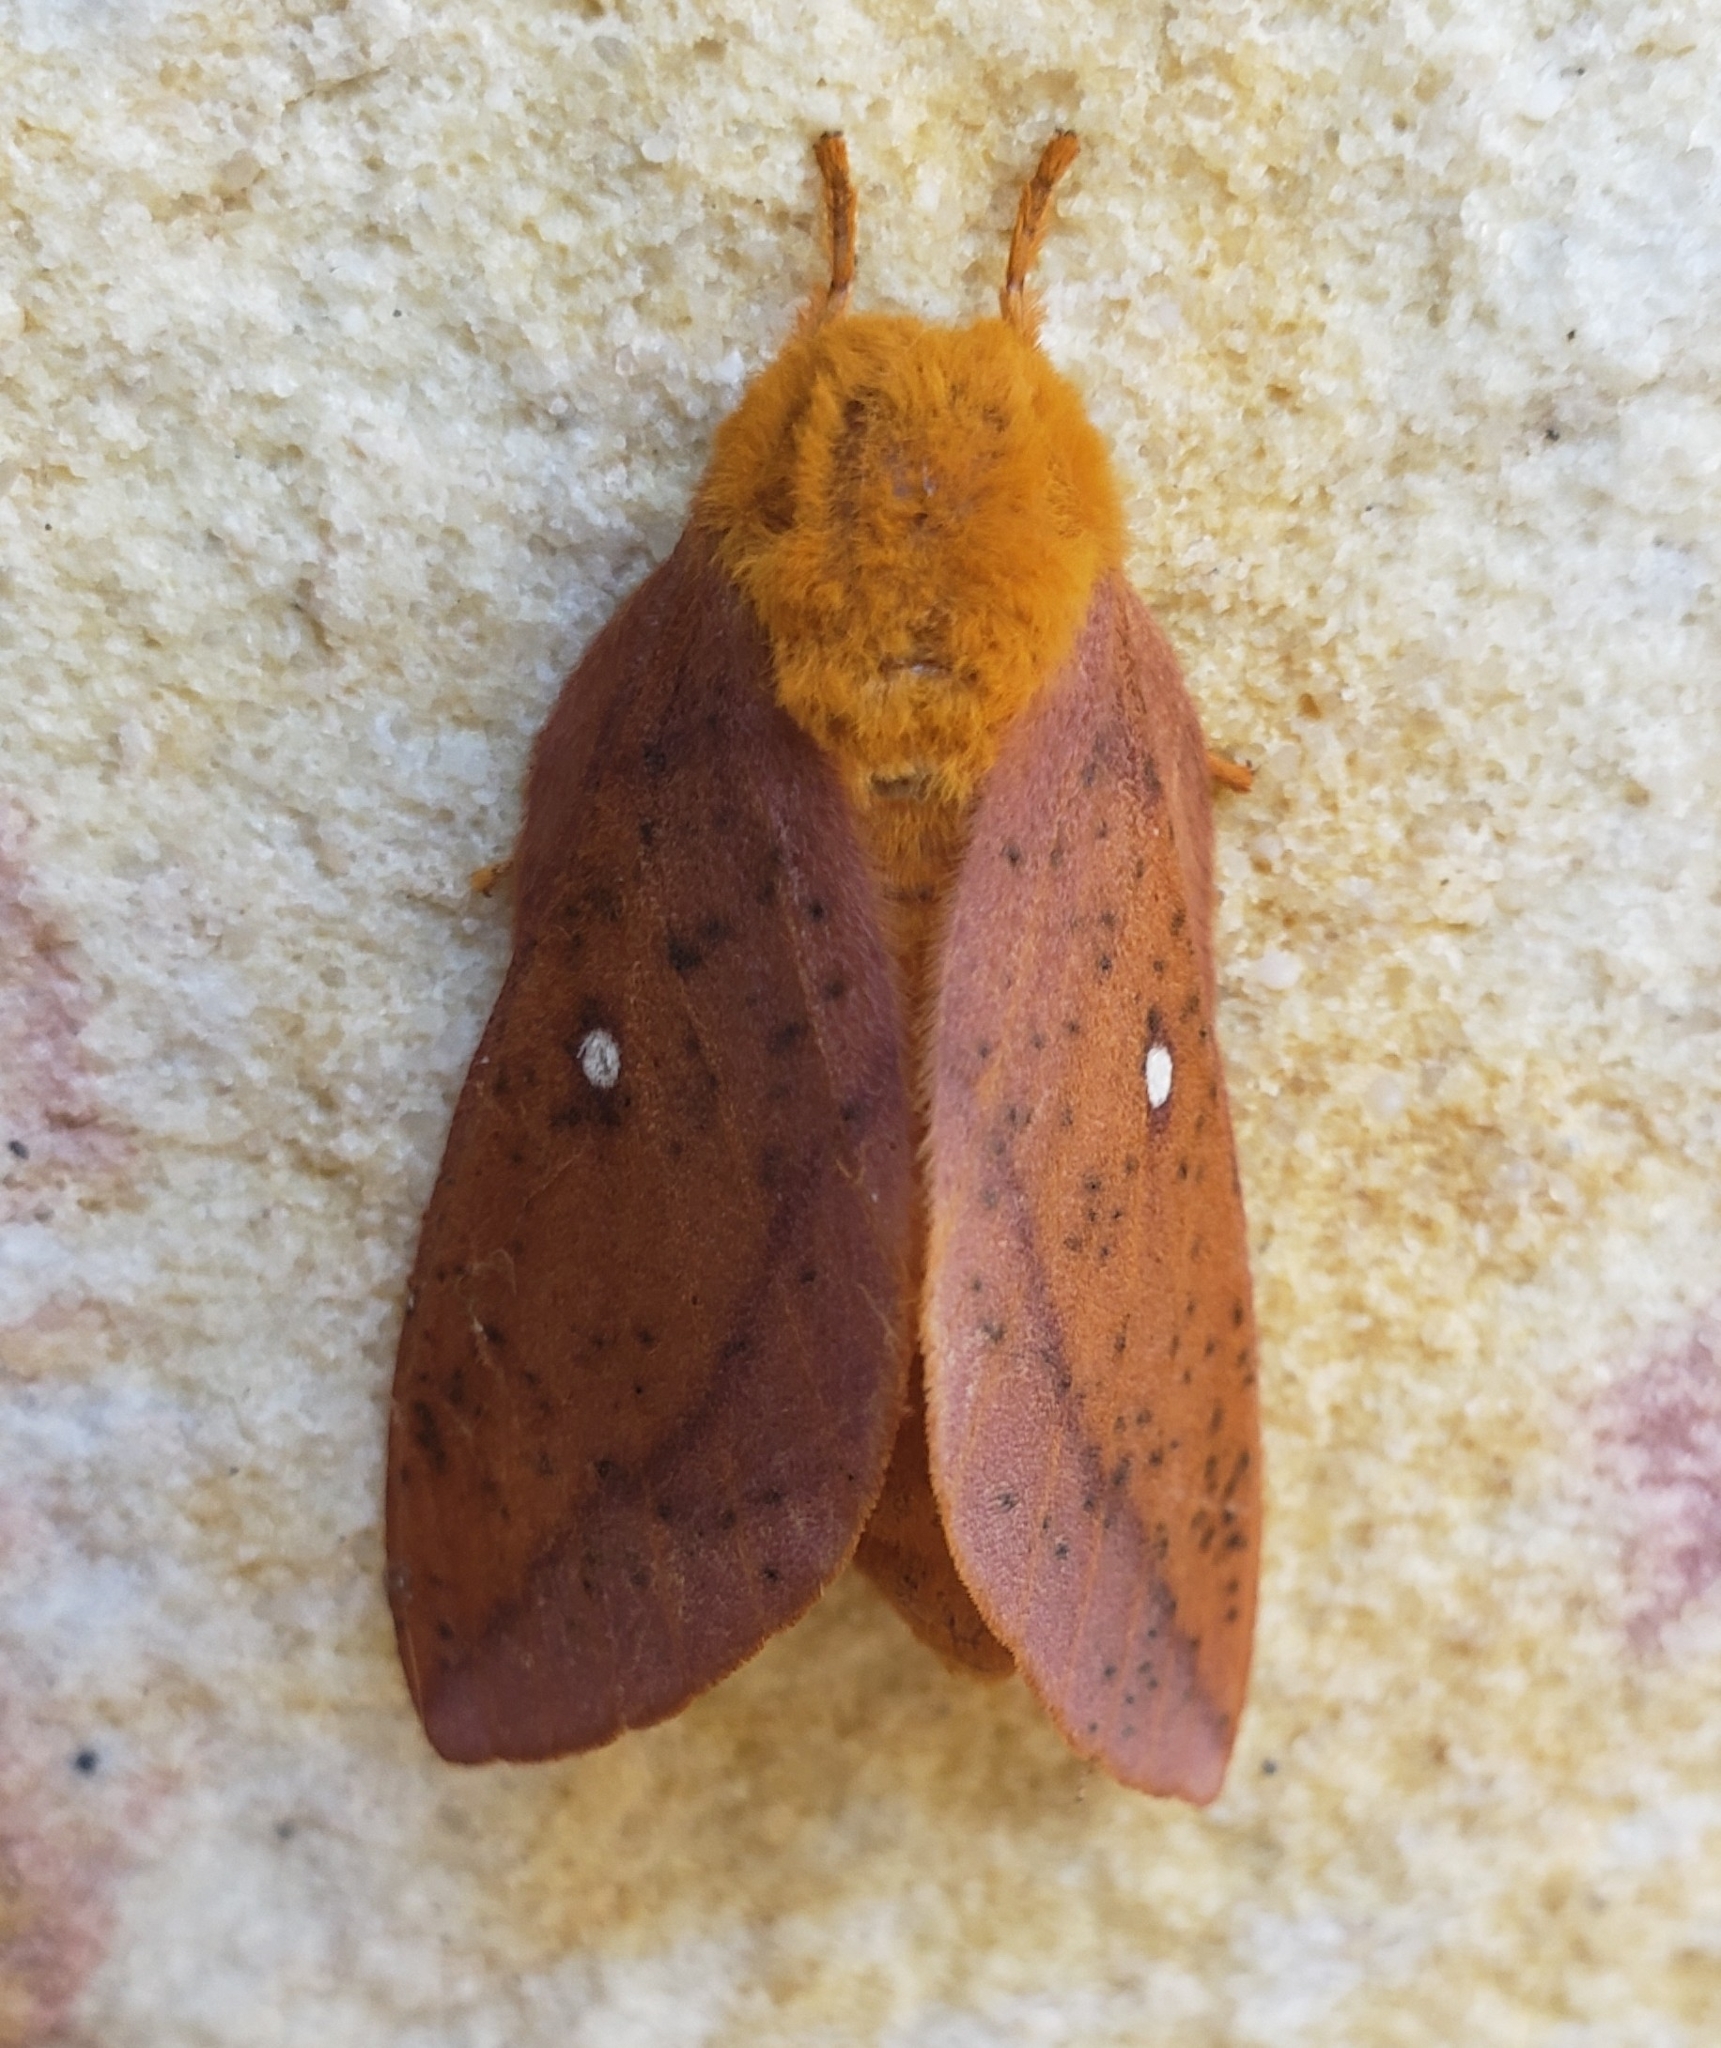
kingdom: Animalia
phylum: Arthropoda
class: Insecta
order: Lepidoptera
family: Saturniidae
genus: Anisota
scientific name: Anisota senatoria
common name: Orange-striped oakworm moth
